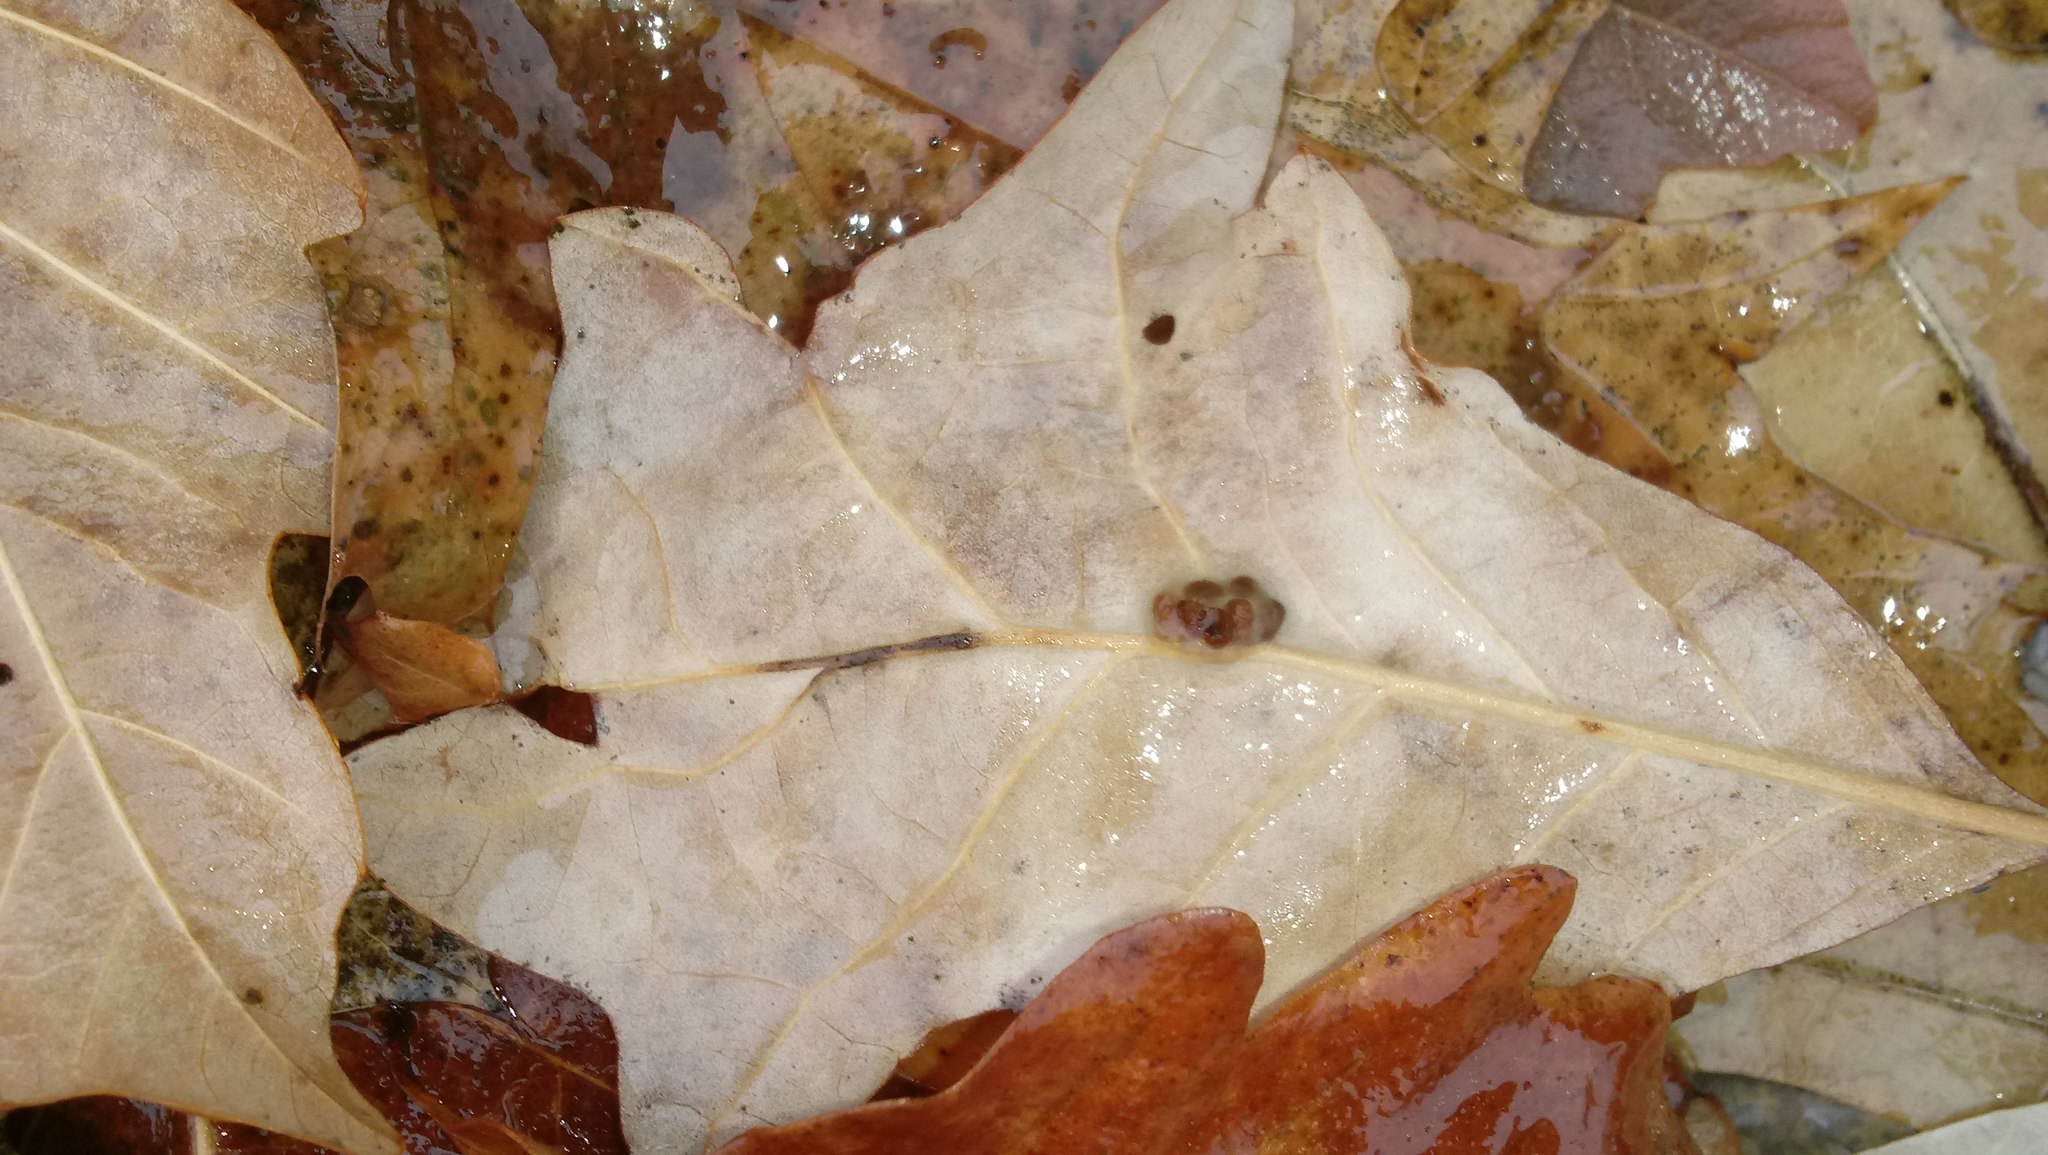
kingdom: Animalia
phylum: Arthropoda
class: Insecta
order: Hymenoptera
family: Cynipidae
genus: Andricus
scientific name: Andricus Druon ignotum
